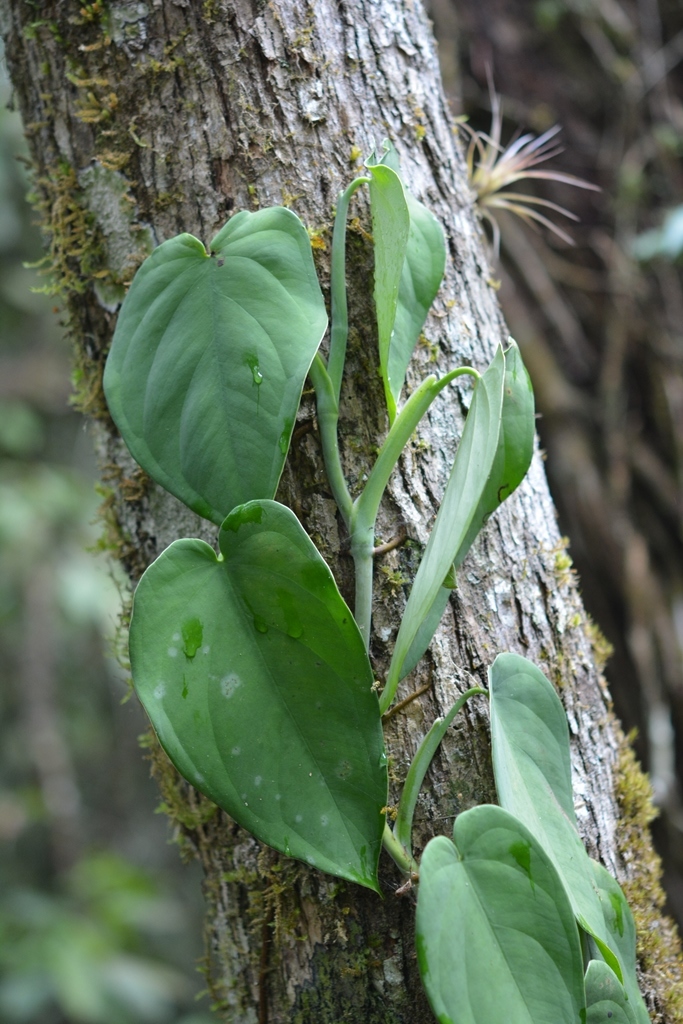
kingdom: Plantae
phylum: Tracheophyta
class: Liliopsida
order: Alismatales
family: Araceae
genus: Syngonium
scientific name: Syngonium chiapense
